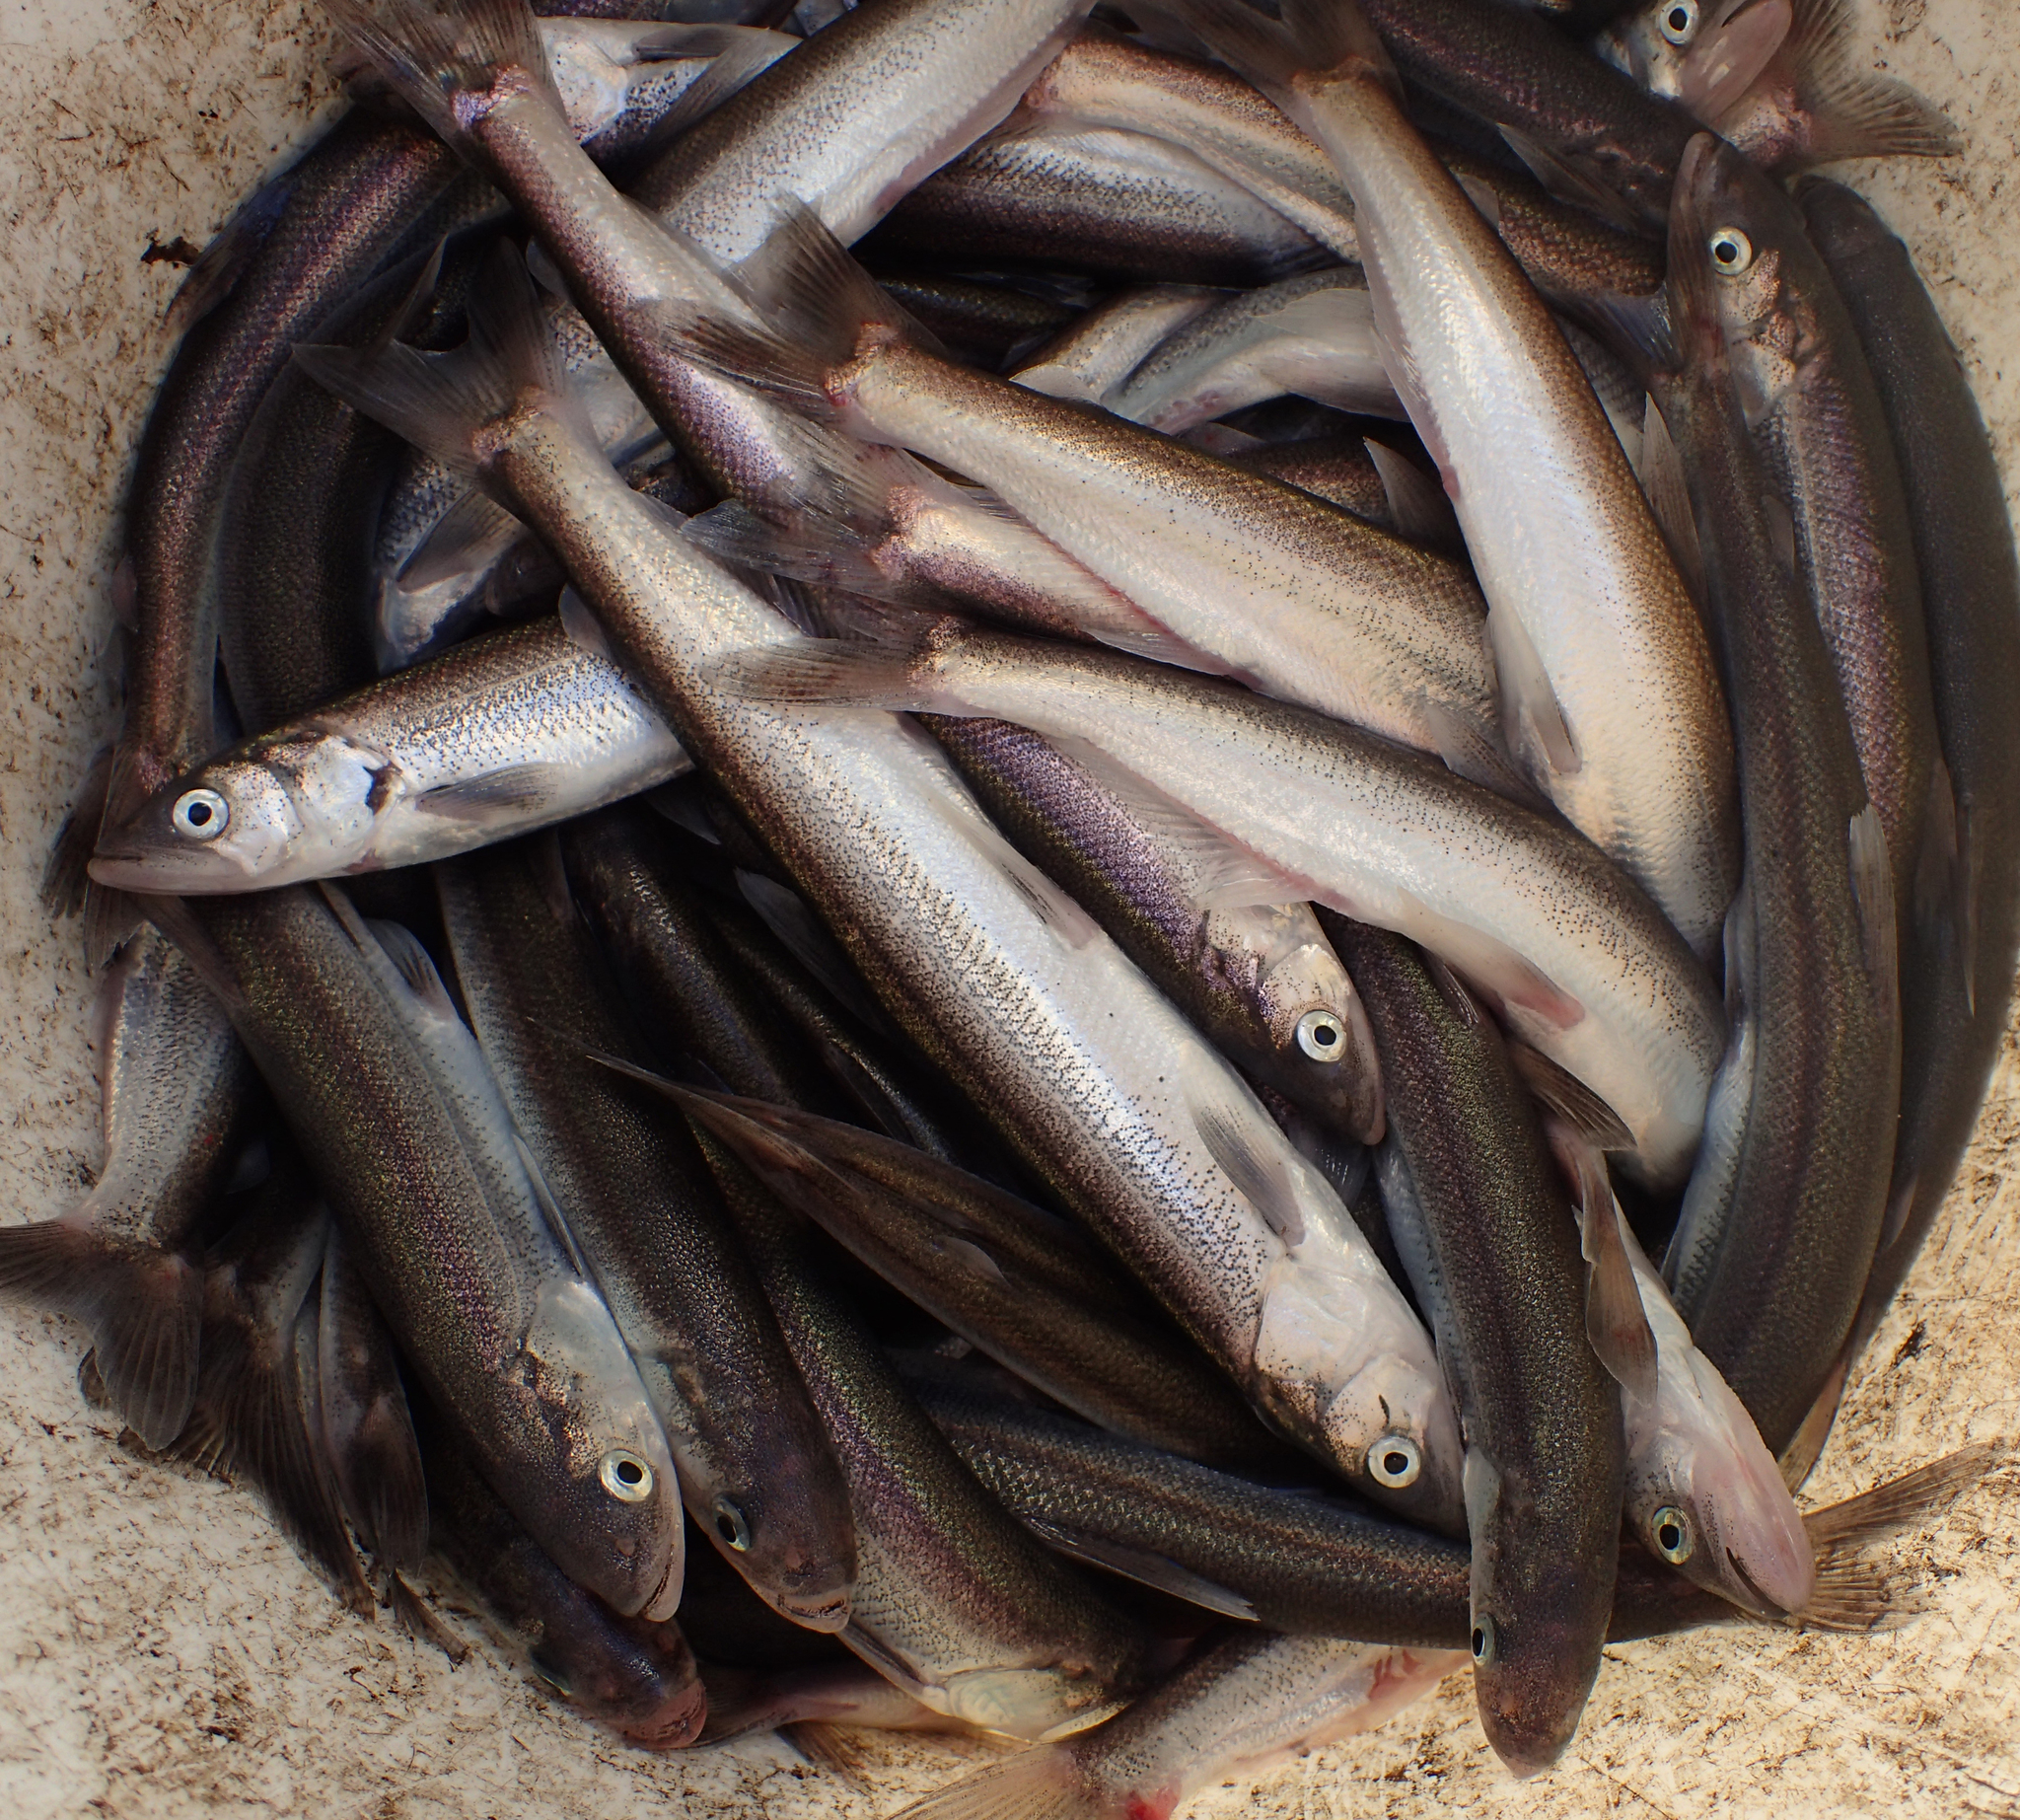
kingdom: Animalia
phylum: Chordata
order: Osmeriformes
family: Osmeridae
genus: Thaleichthys
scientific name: Thaleichthys pacificus
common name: Eulachon
